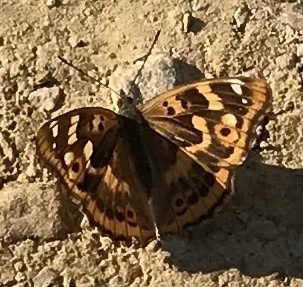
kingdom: Animalia
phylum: Arthropoda
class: Insecta
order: Lepidoptera
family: Nymphalidae
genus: Apatura
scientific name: Apatura ilia
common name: Lesser purple emperor
